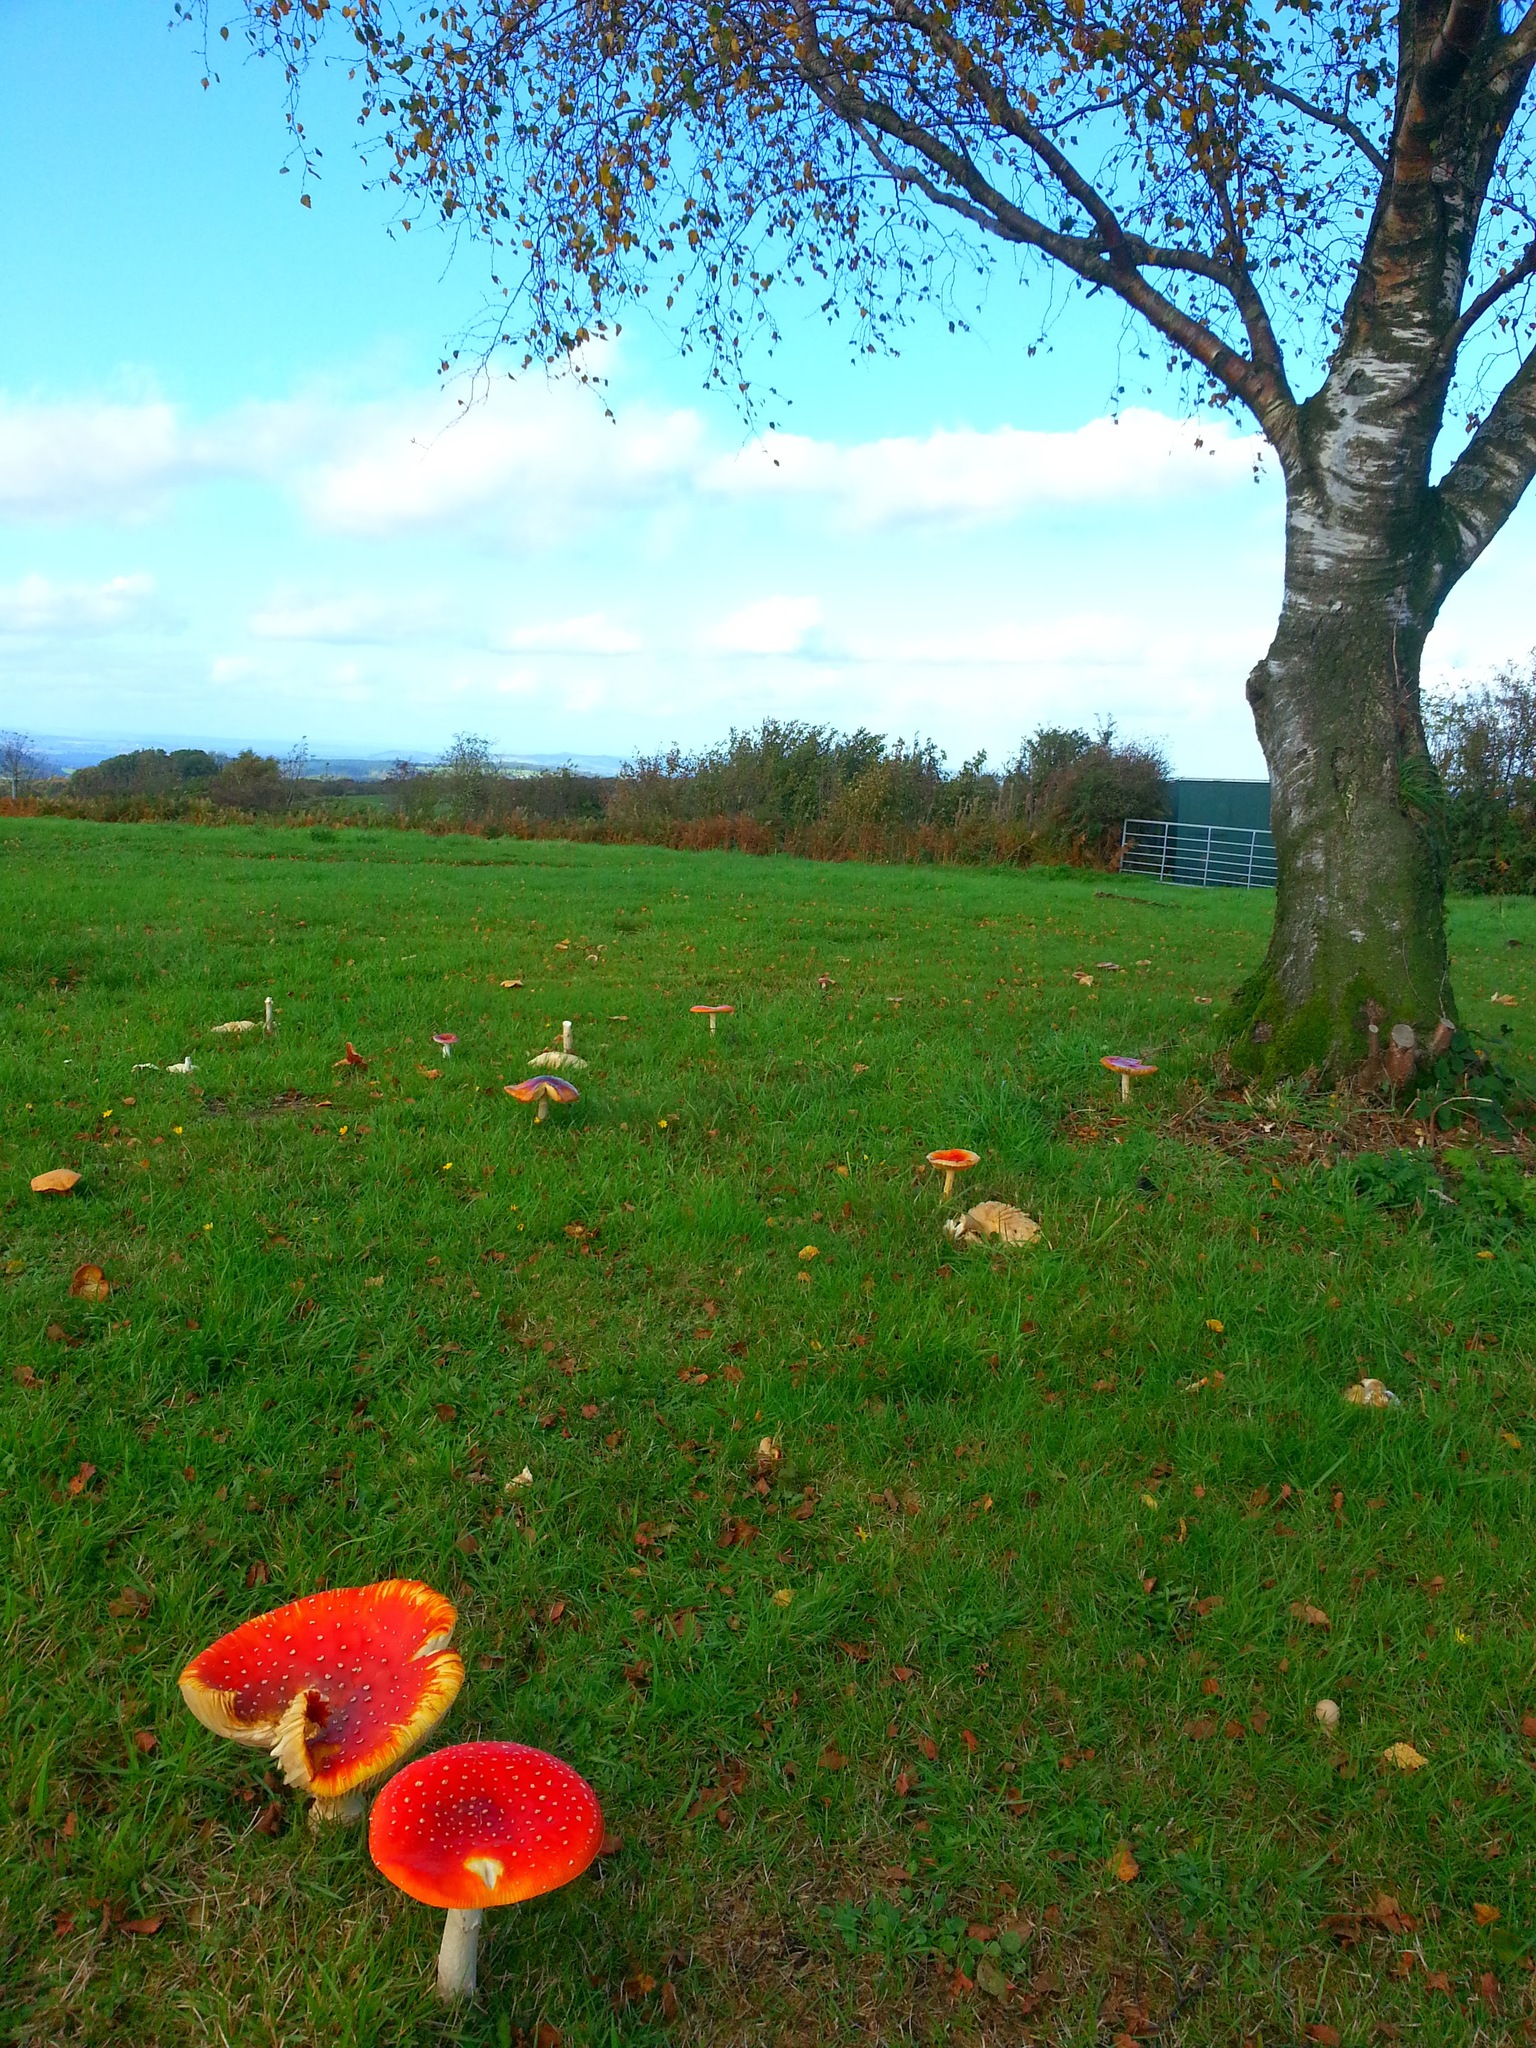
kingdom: Fungi
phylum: Basidiomycota
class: Agaricomycetes
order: Agaricales
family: Amanitaceae
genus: Amanita
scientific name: Amanita muscaria
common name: Fly agaric
